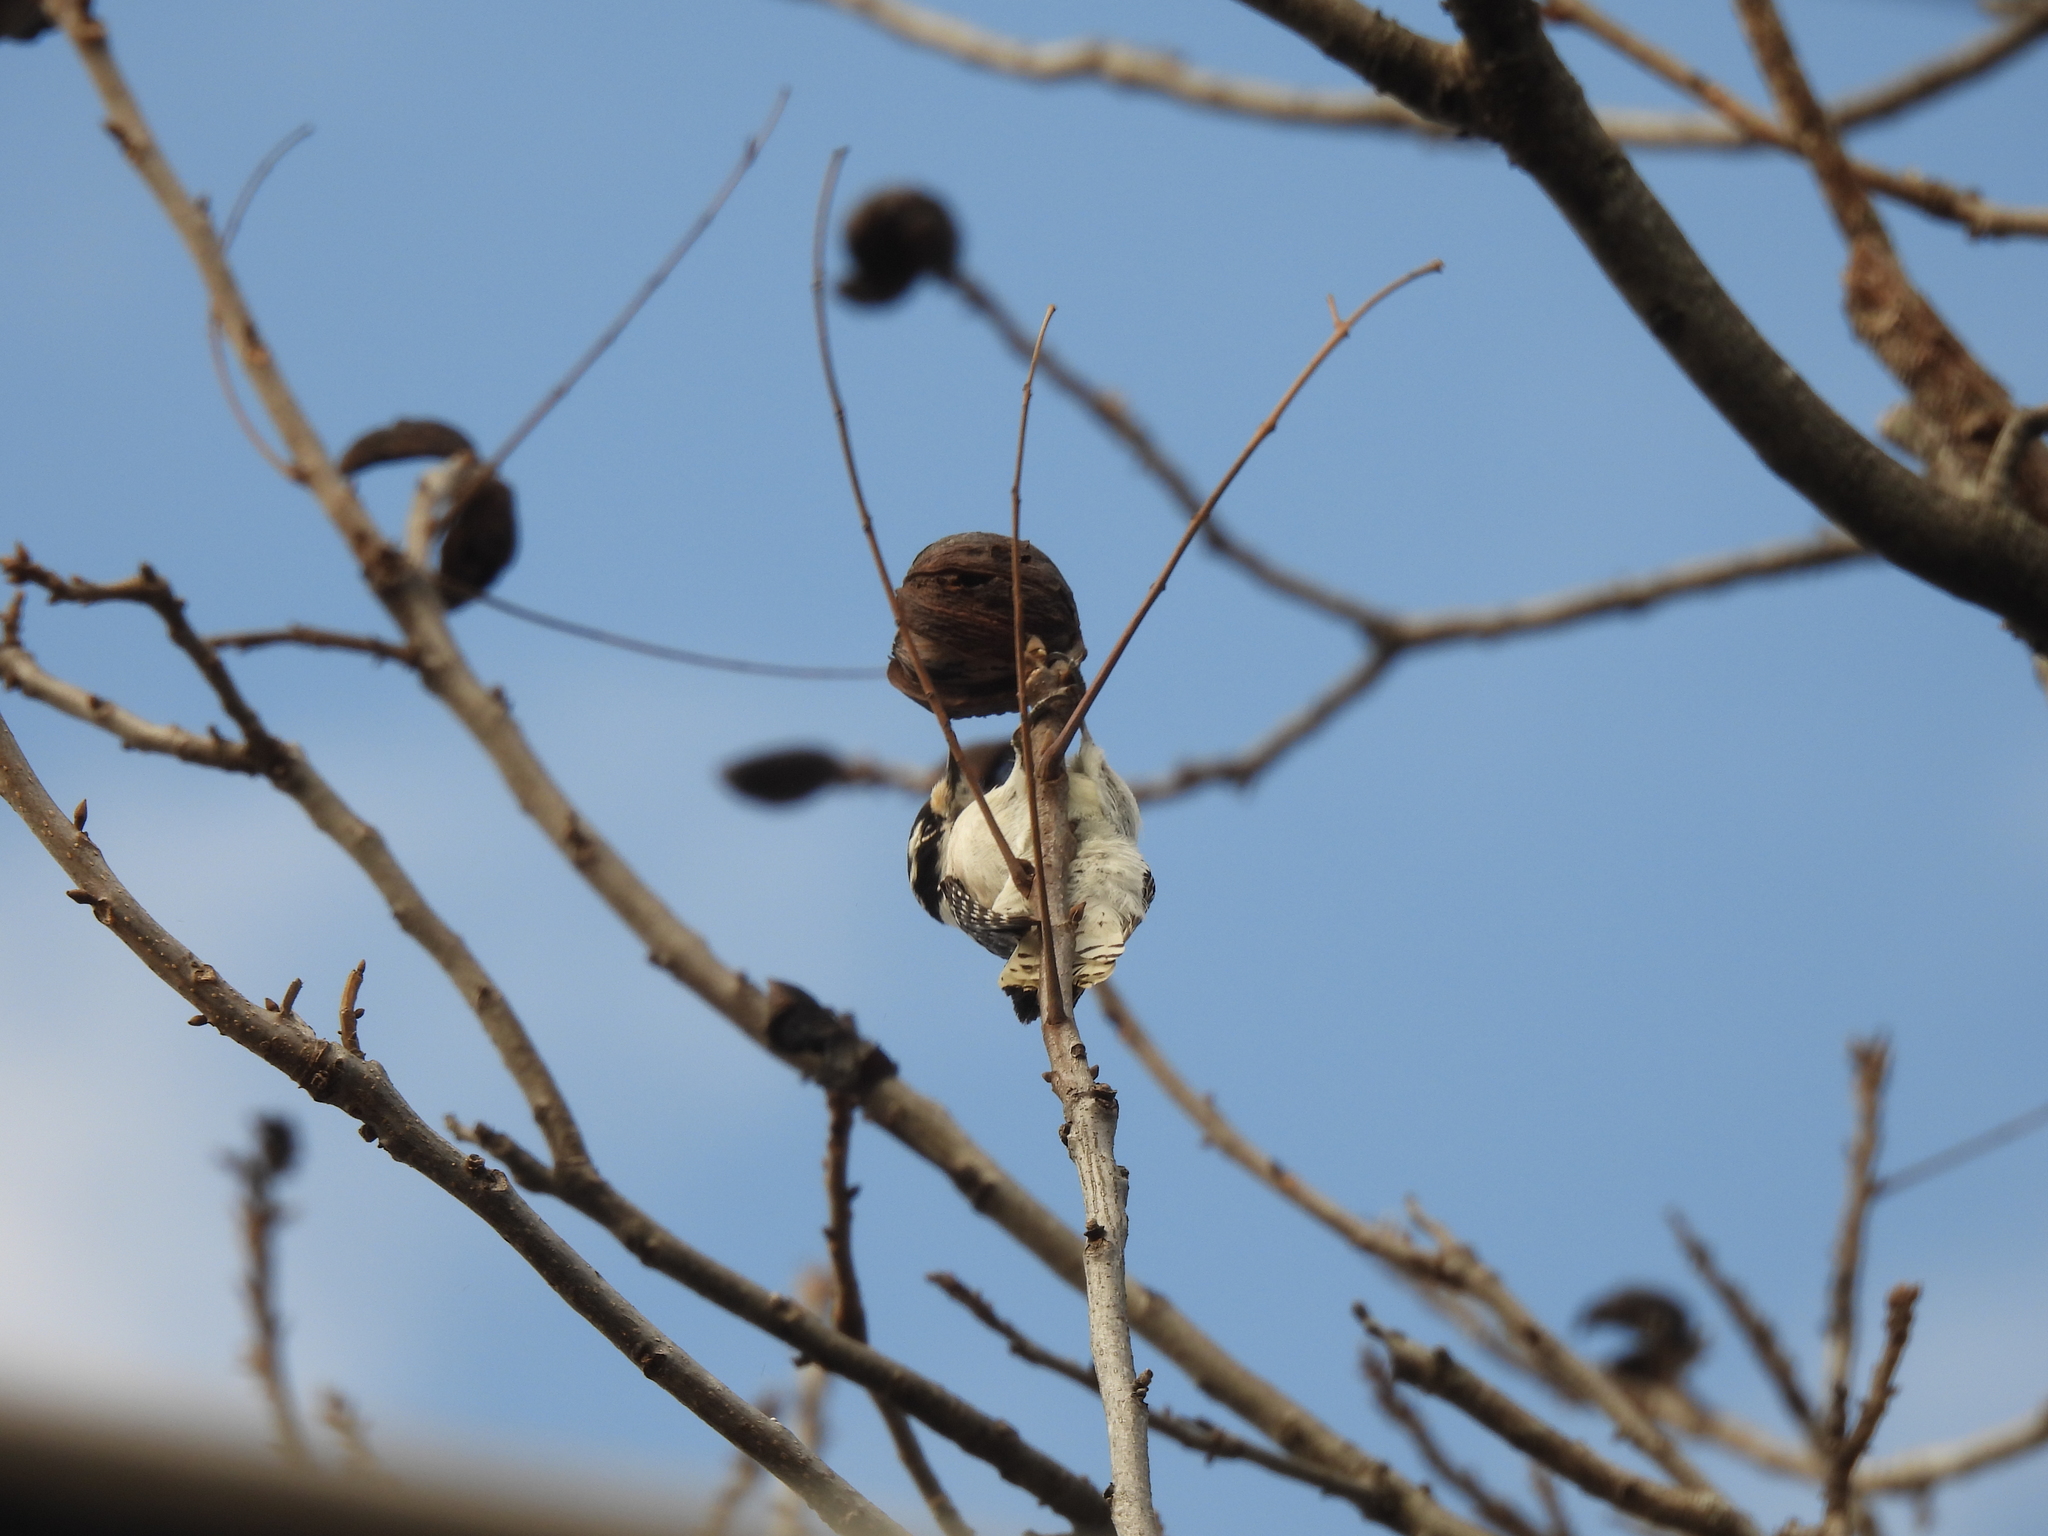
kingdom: Animalia
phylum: Chordata
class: Aves
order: Piciformes
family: Picidae
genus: Dryobates
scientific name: Dryobates pubescens
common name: Downy woodpecker
